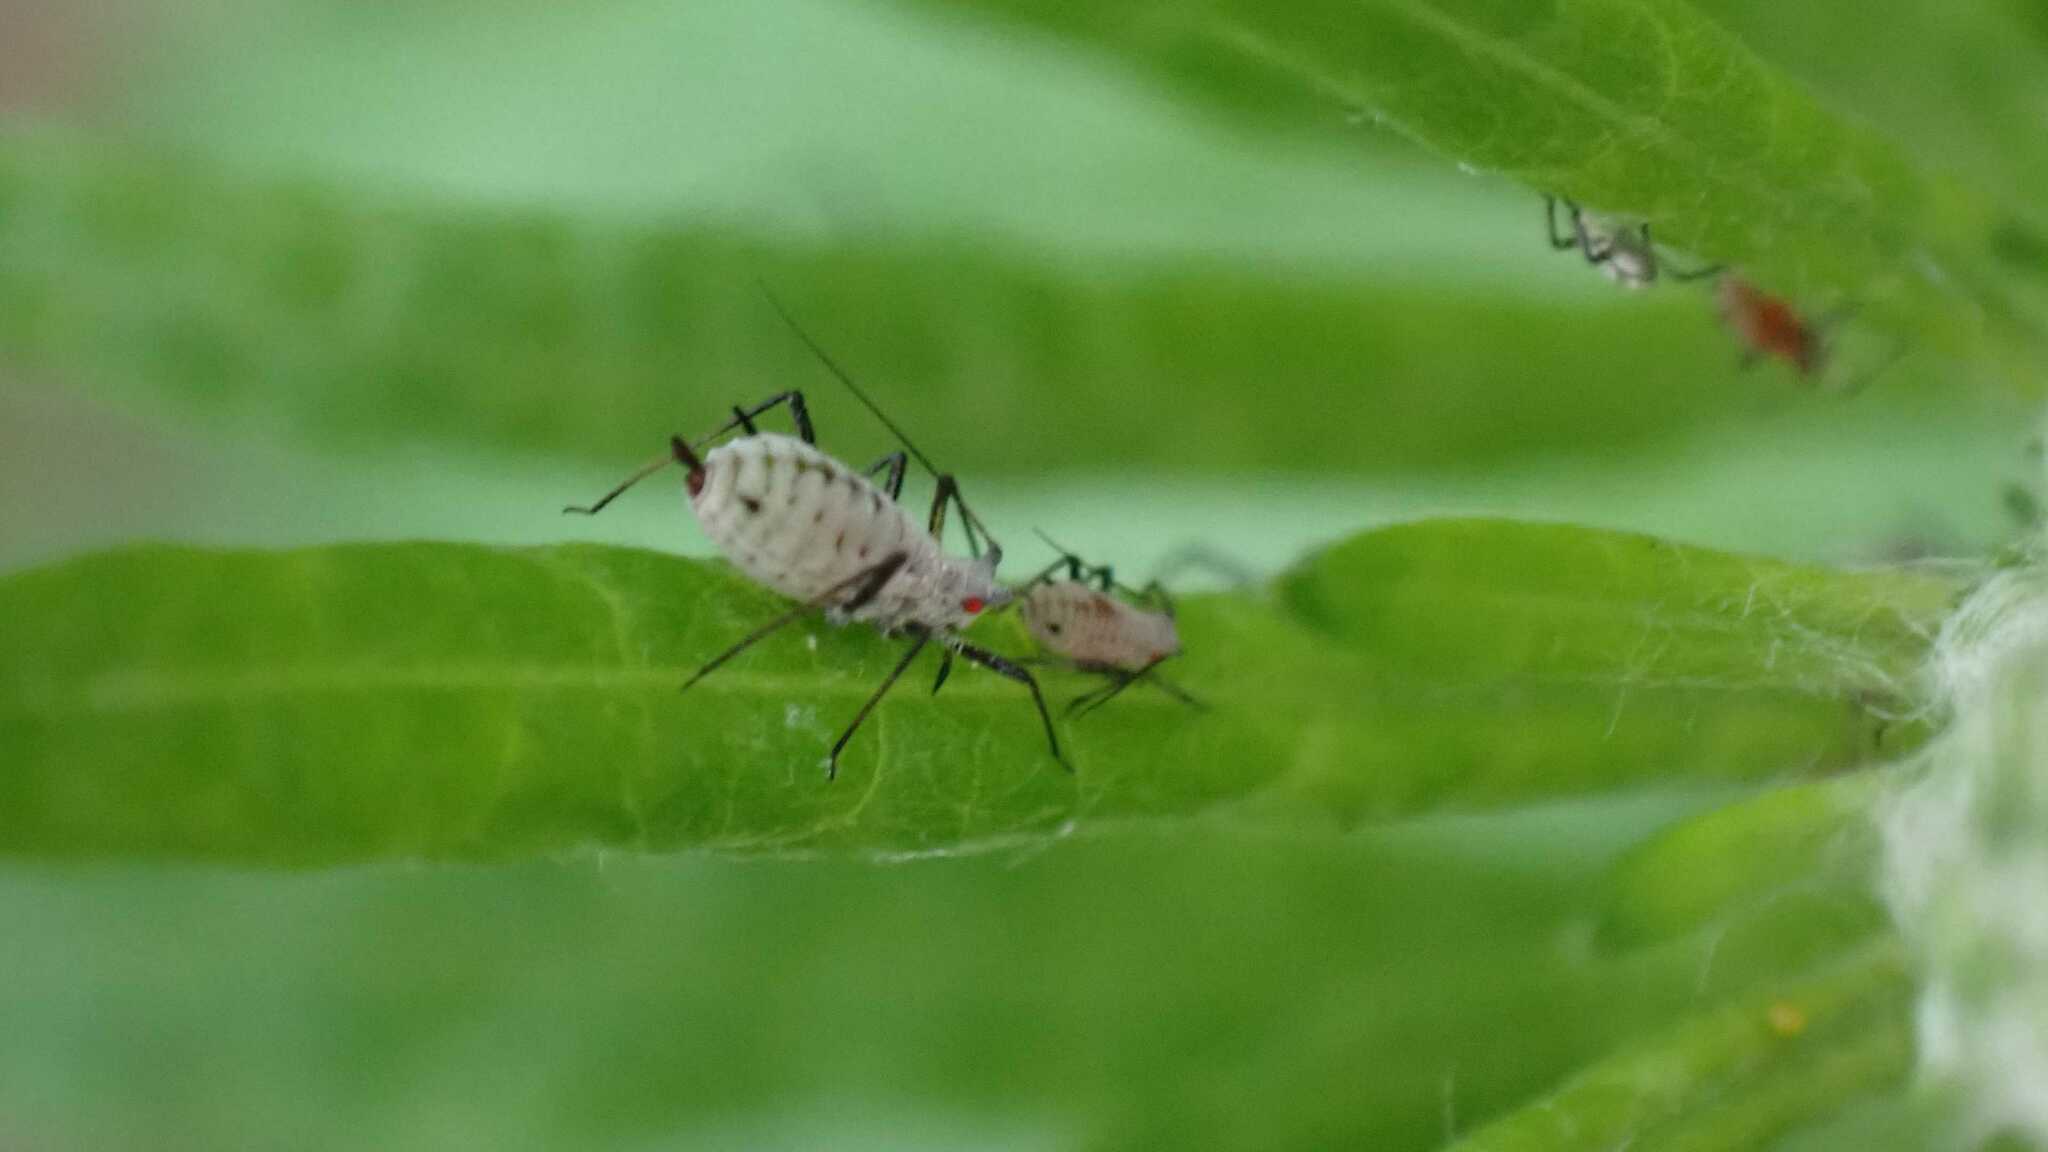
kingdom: Animalia
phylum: Arthropoda
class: Insecta
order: Hemiptera
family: Aphididae
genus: Macrosiphoniella
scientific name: Macrosiphoniella artemisiae
